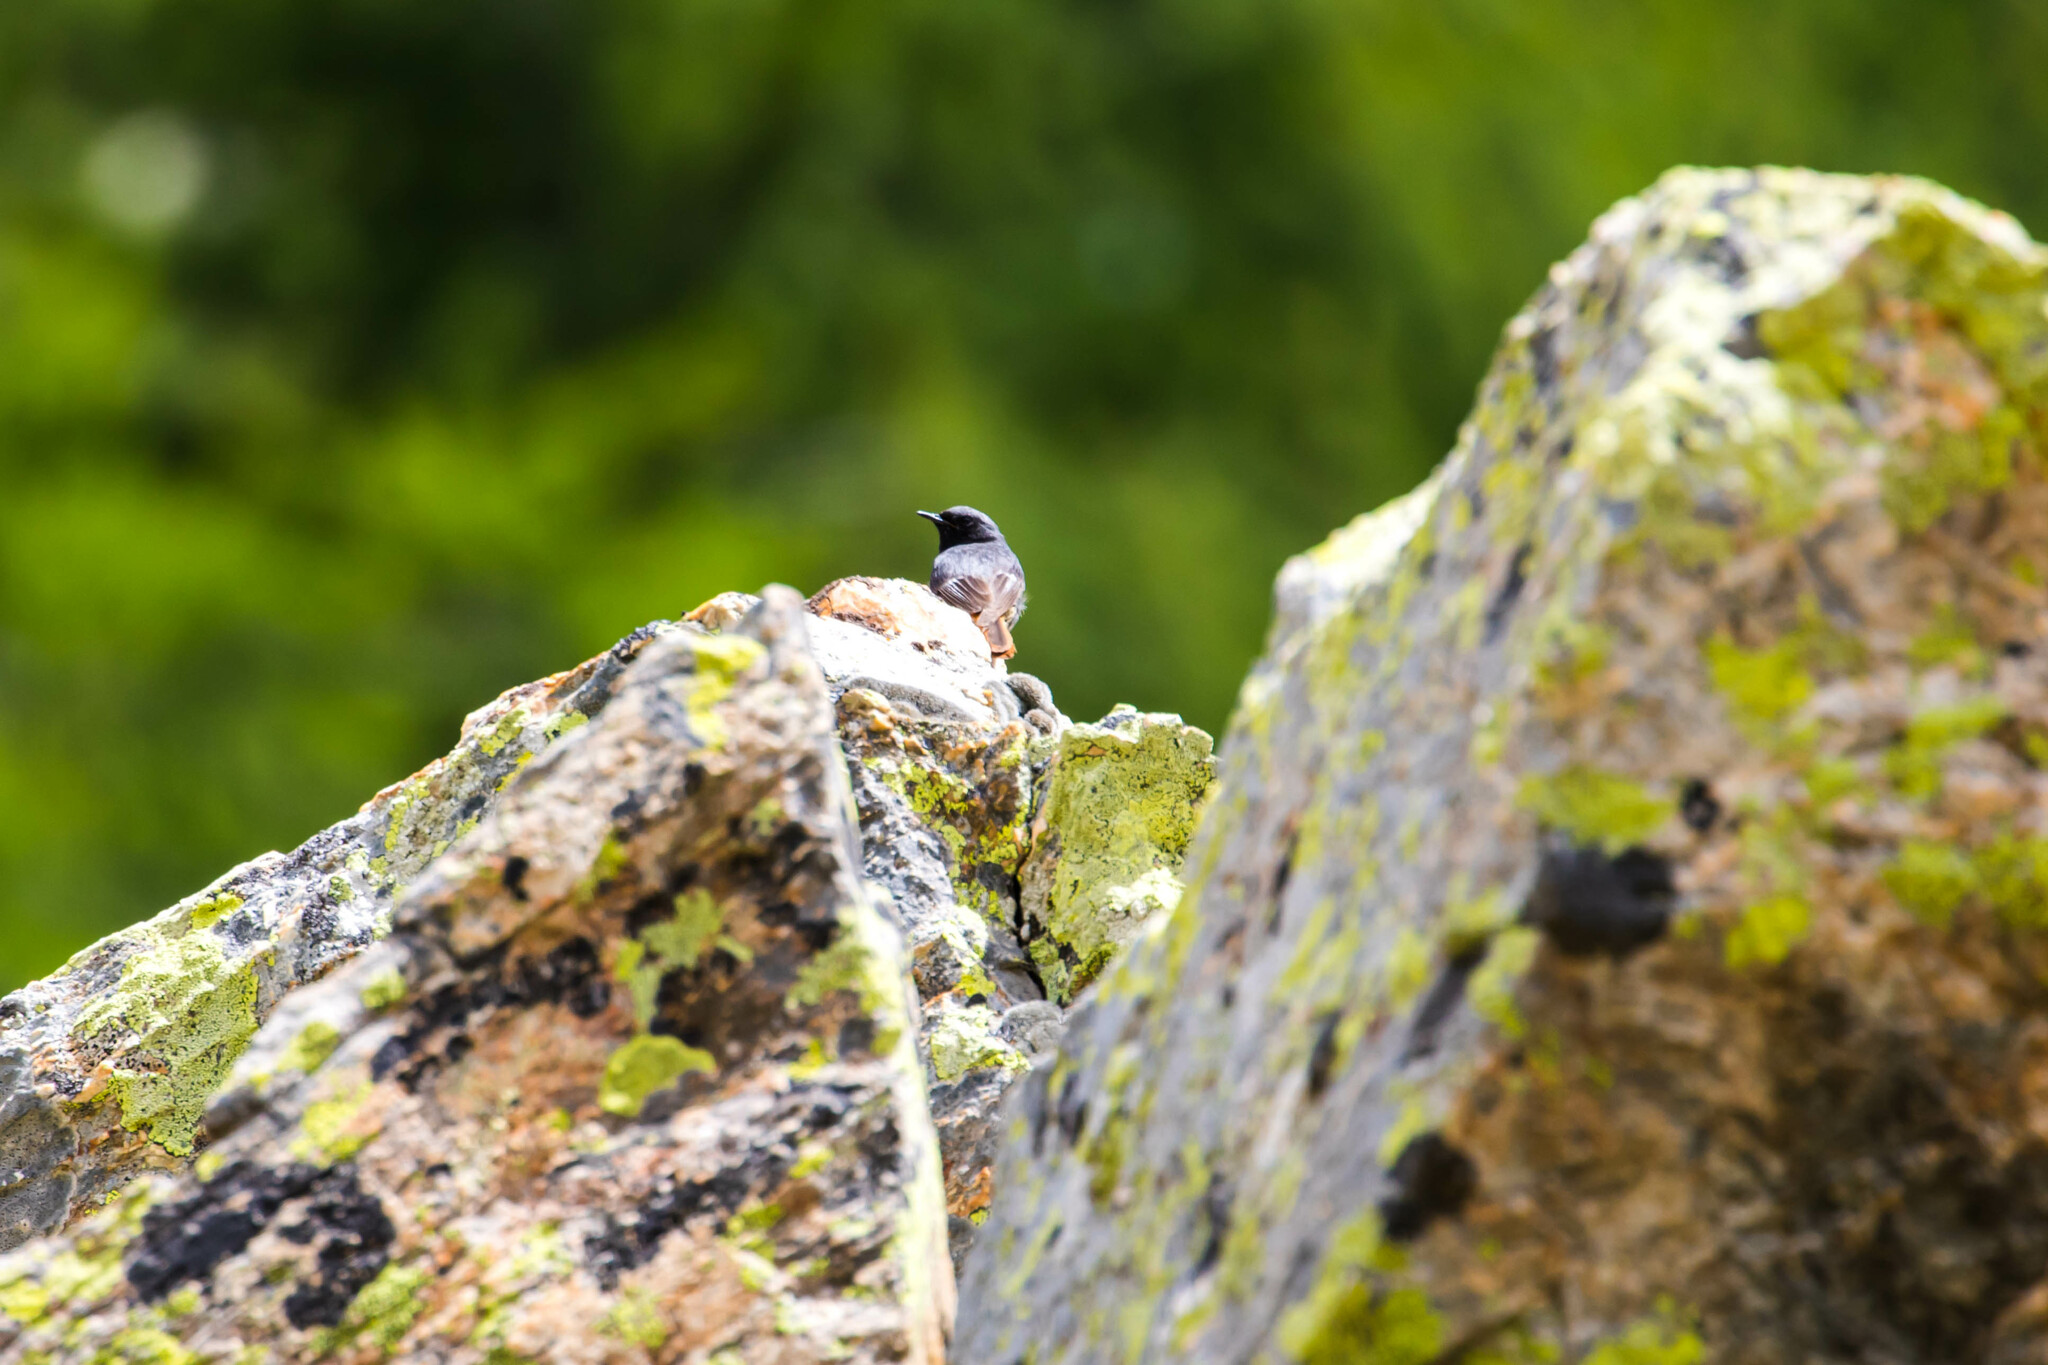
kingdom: Animalia
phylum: Chordata
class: Aves
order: Passeriformes
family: Muscicapidae
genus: Phoenicurus
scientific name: Phoenicurus ochruros
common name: Black redstart
